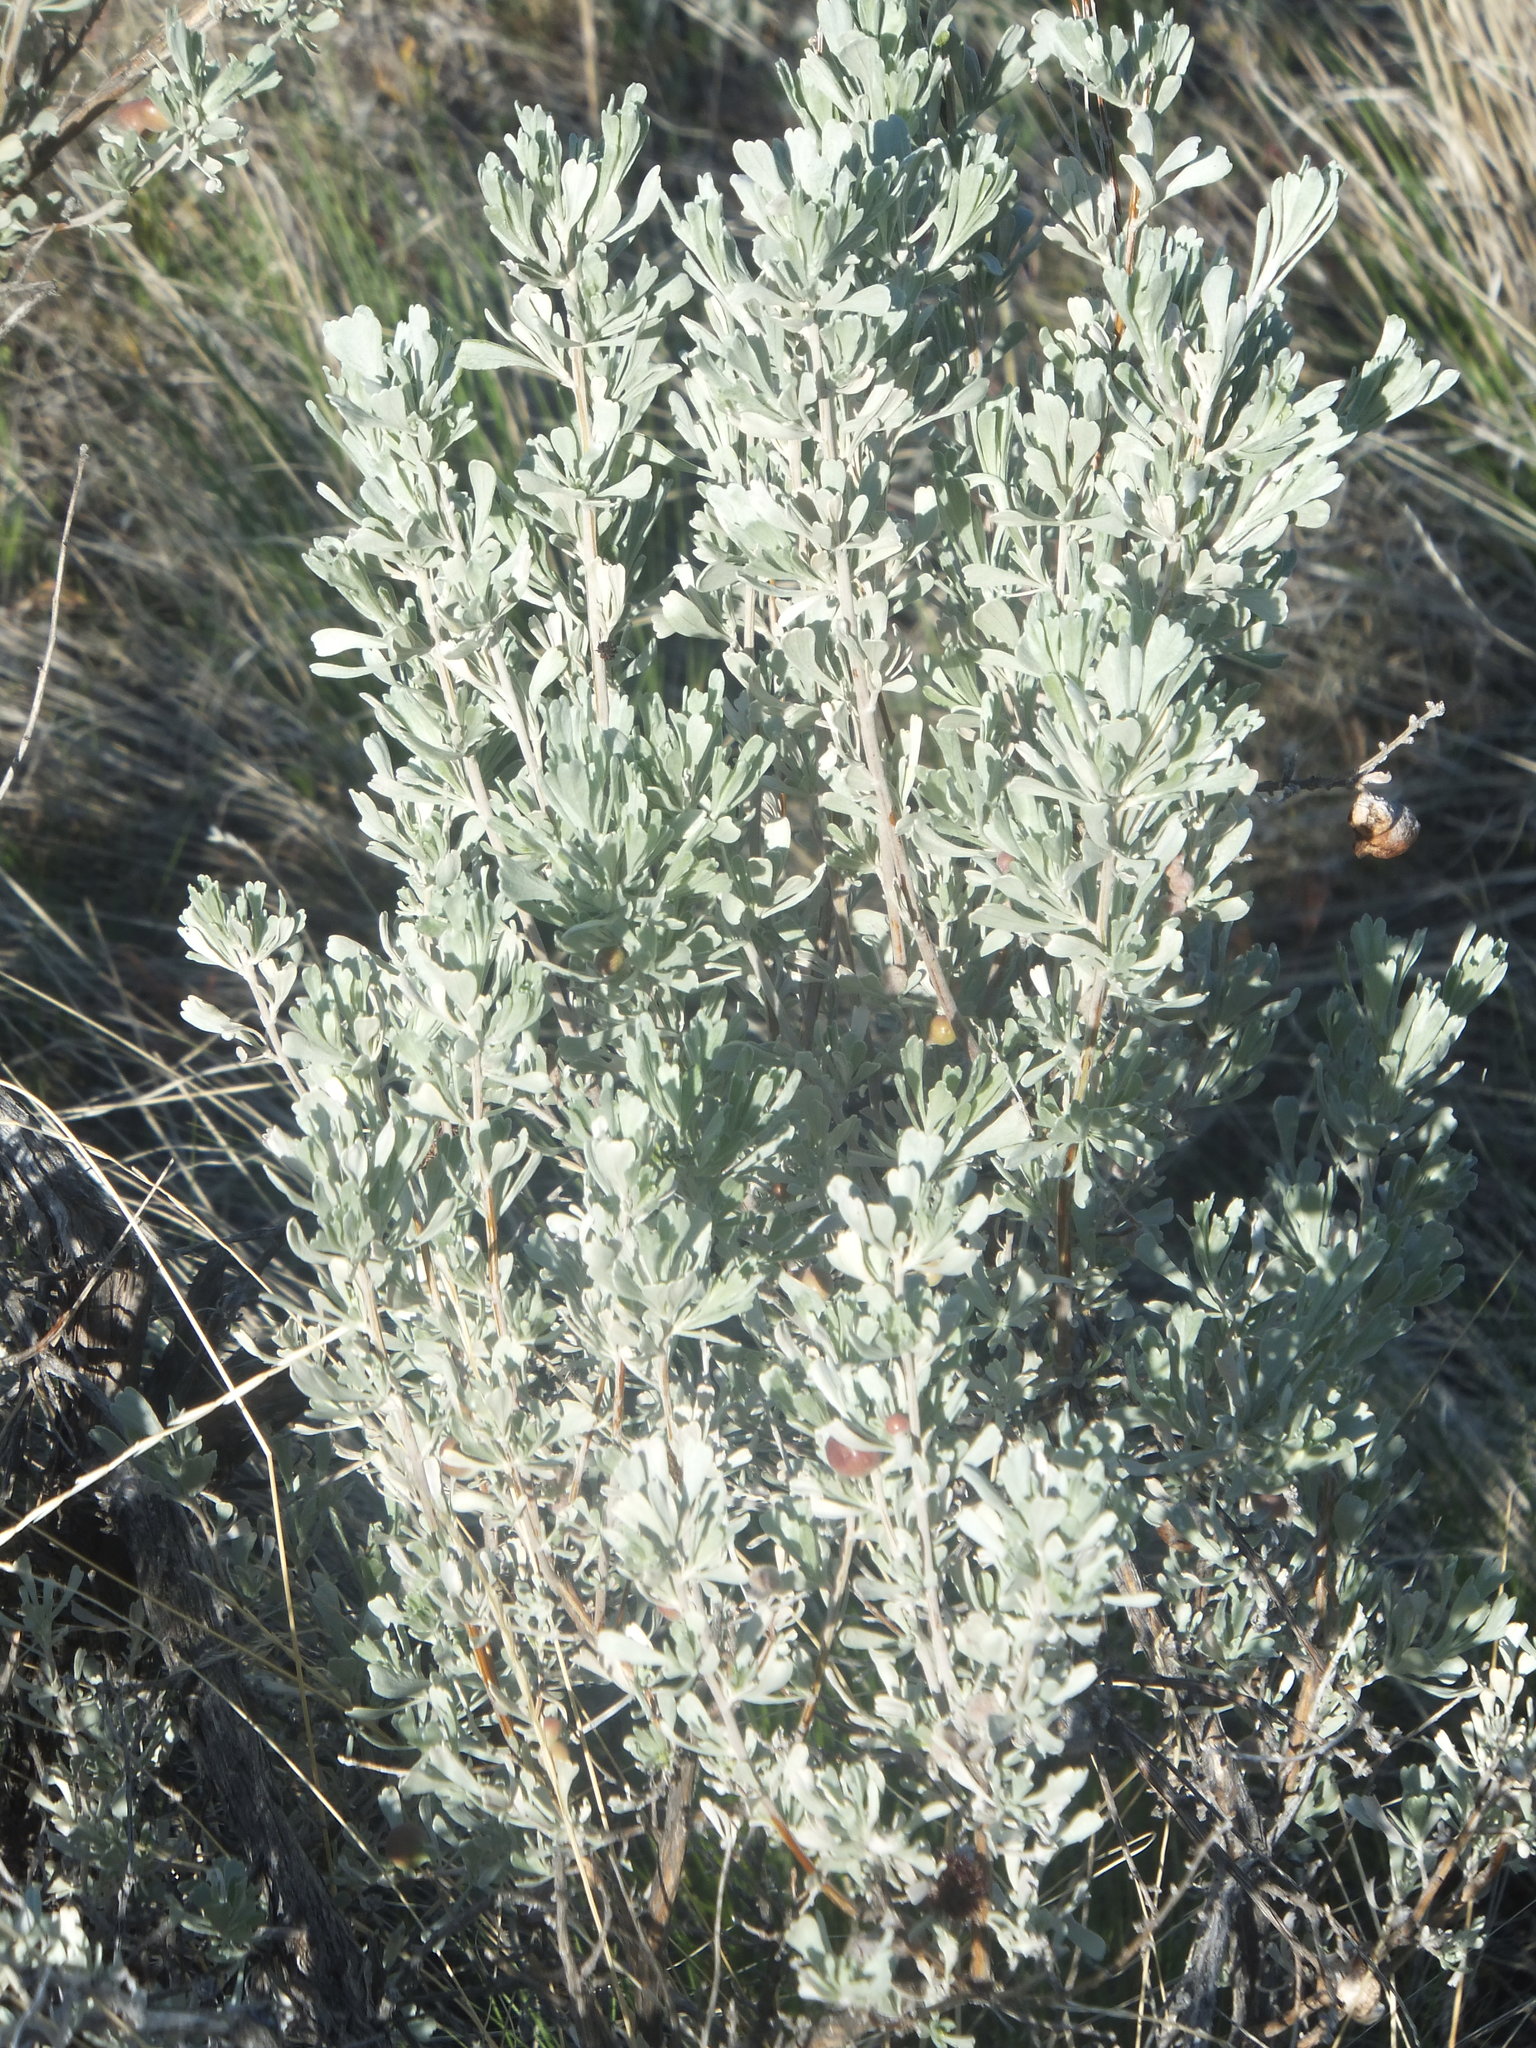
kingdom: Plantae
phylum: Tracheophyta
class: Magnoliopsida
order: Asterales
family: Asteraceae
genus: Artemisia
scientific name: Artemisia tridentata
